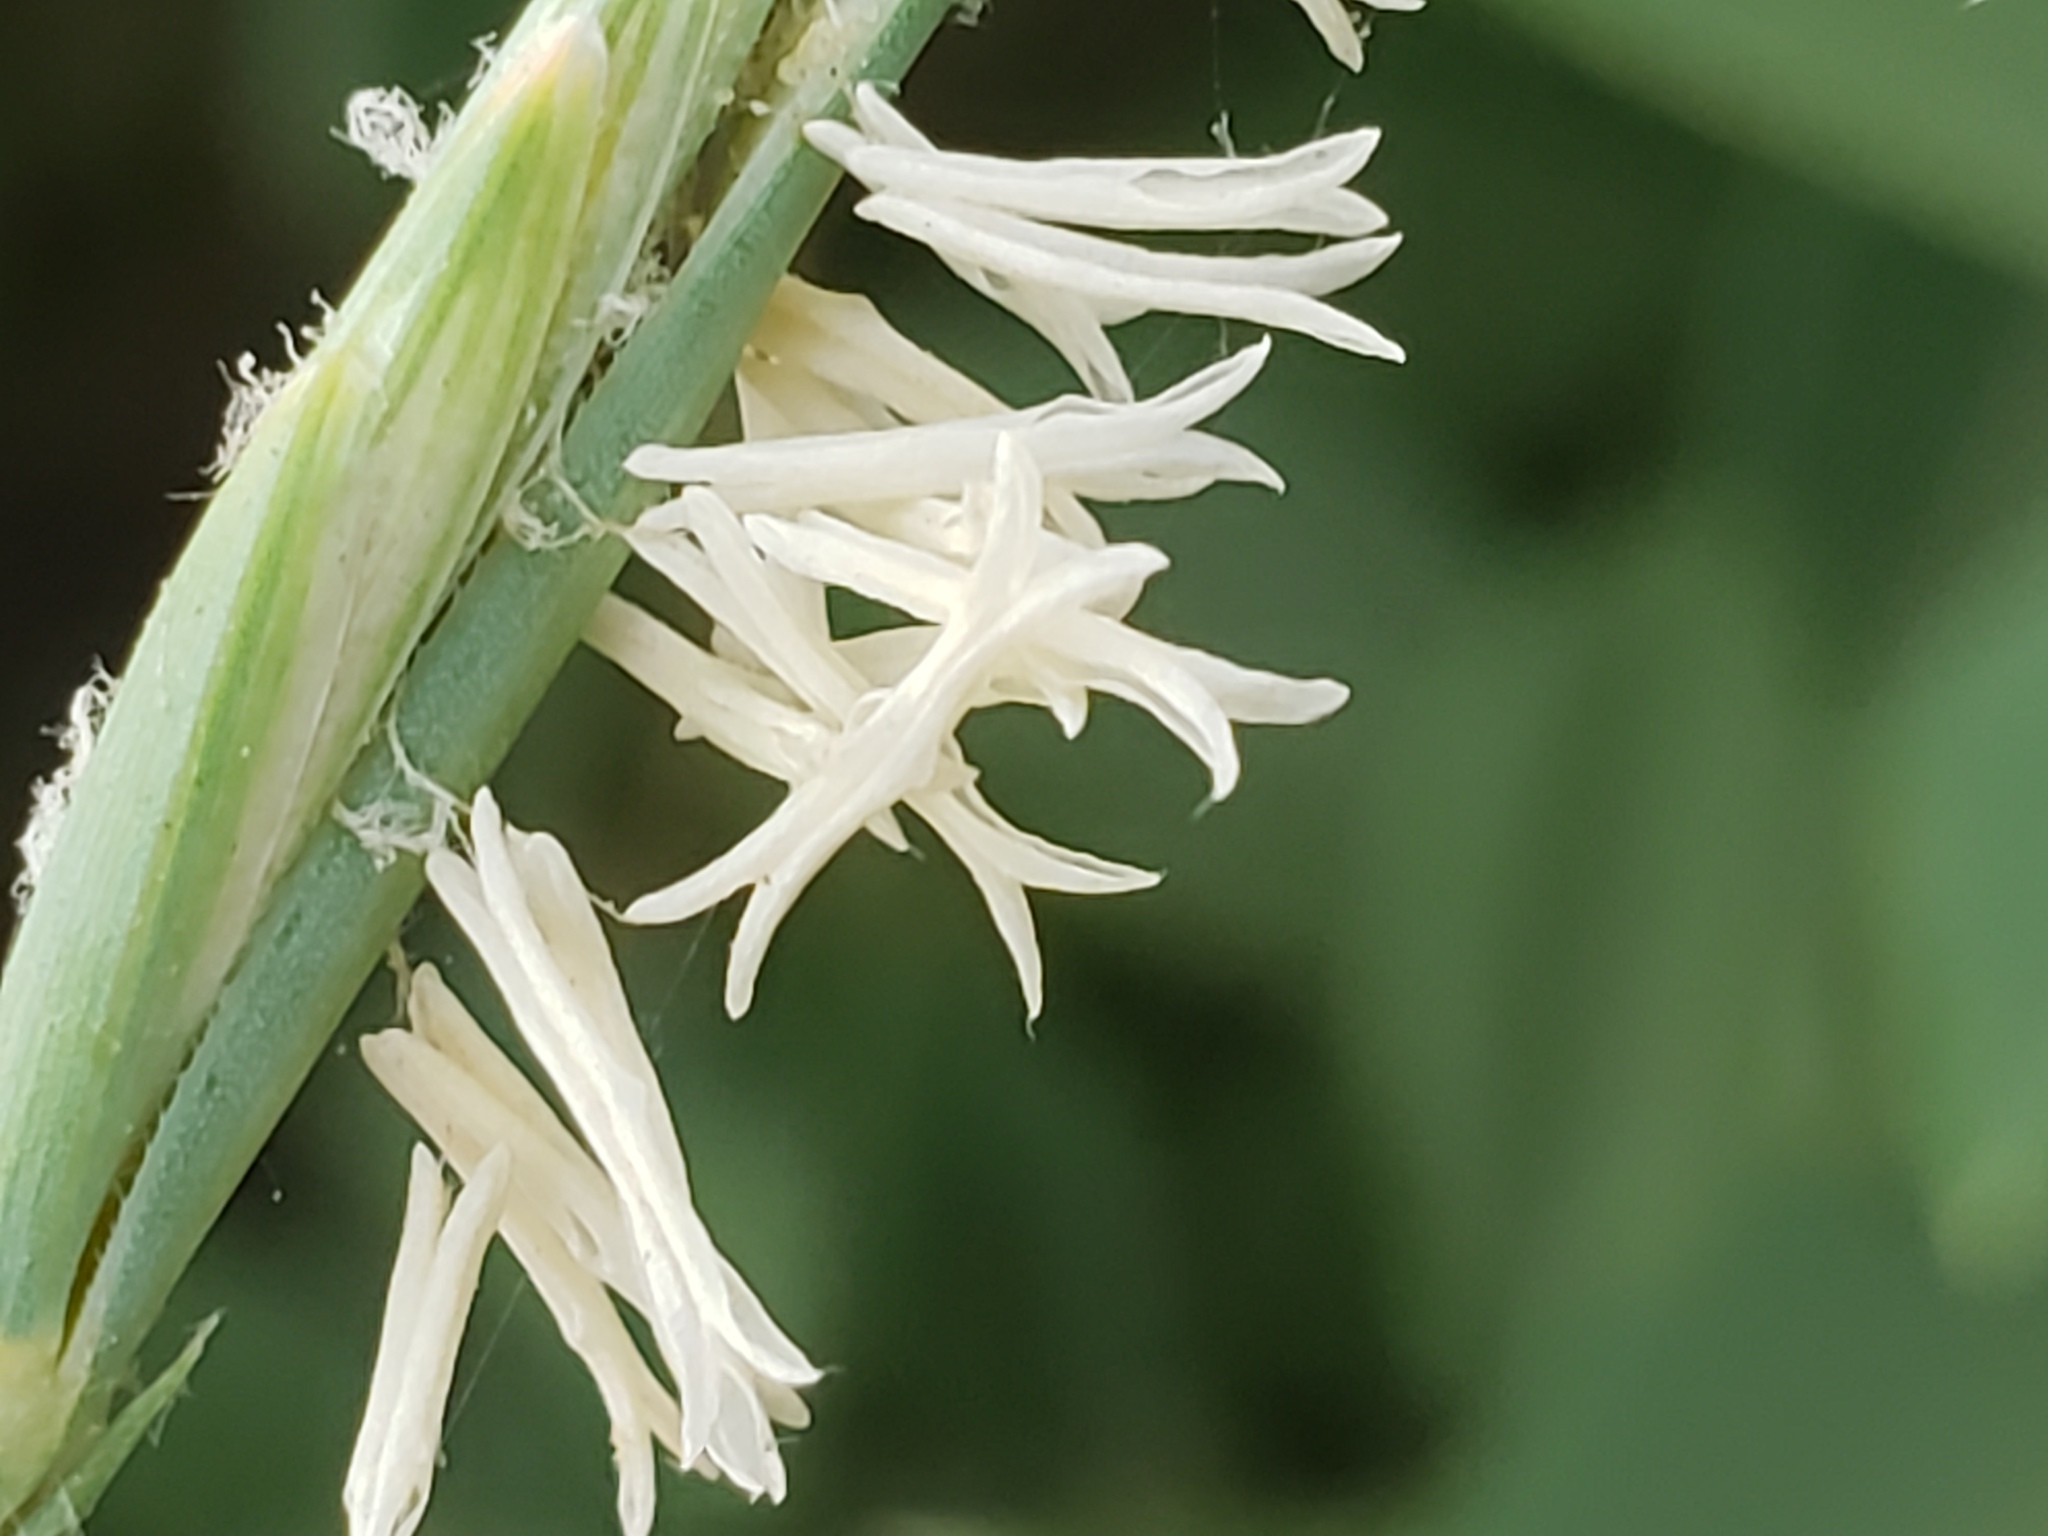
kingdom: Plantae
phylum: Tracheophyta
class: Liliopsida
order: Poales
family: Poaceae
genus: Thinopyrum
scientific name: Thinopyrum intermedium
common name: Intermediate wheatgrass
